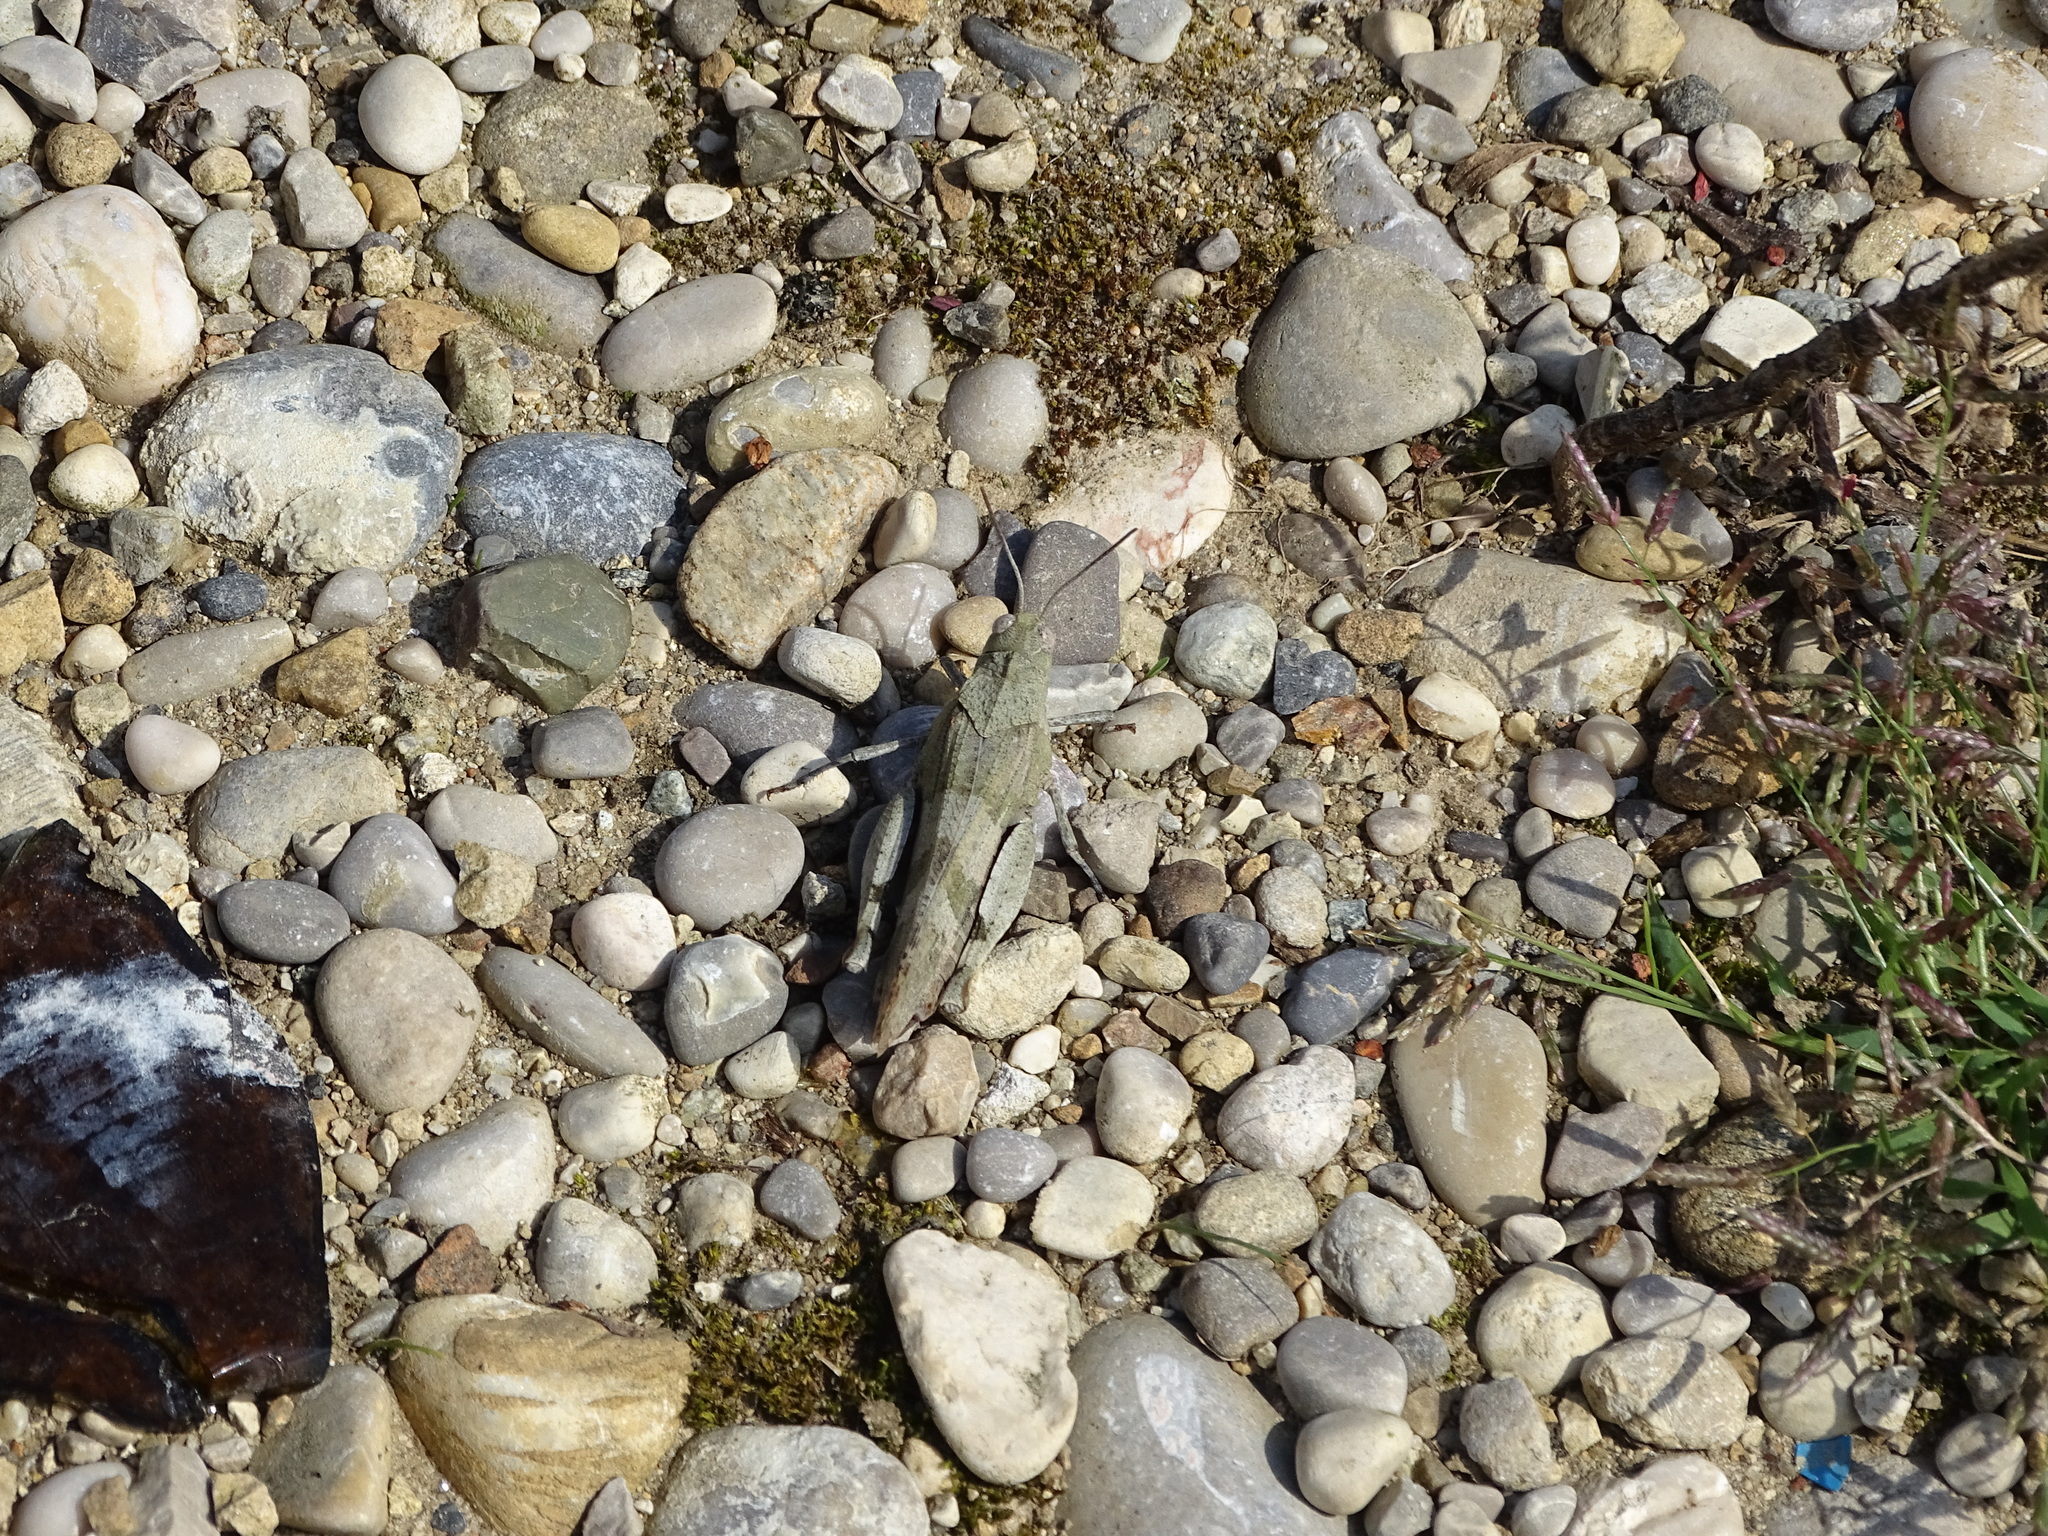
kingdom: Animalia
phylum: Arthropoda
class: Insecta
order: Orthoptera
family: Acrididae
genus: Oedipoda
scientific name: Oedipoda caerulescens
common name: Blue-winged grasshopper
